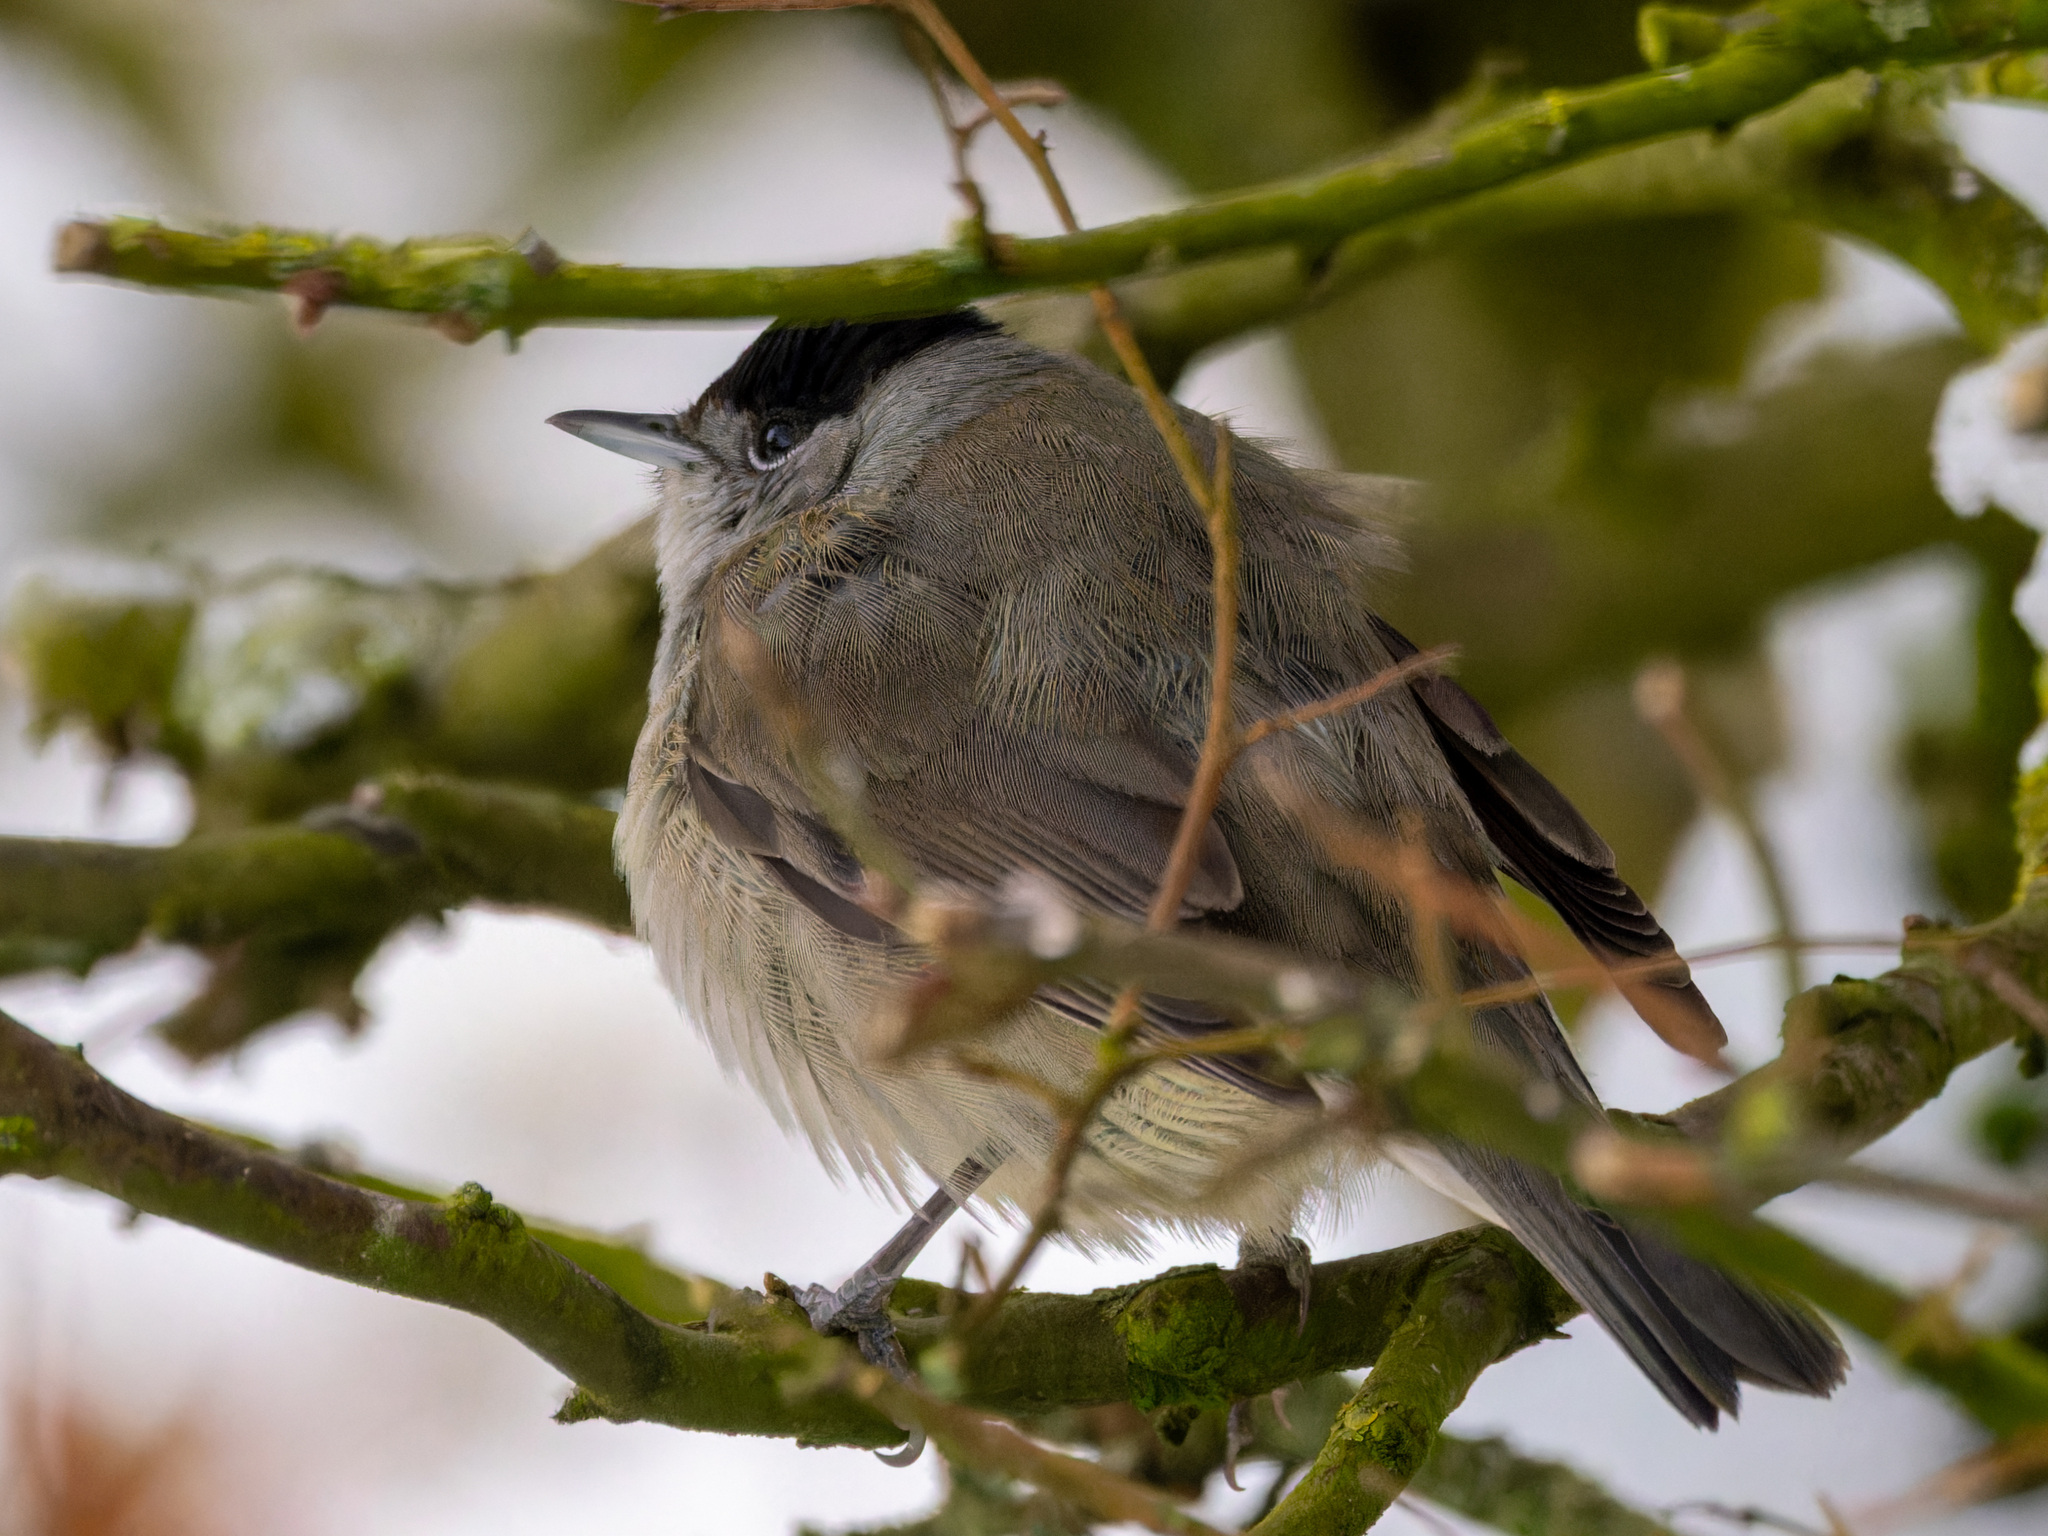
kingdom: Animalia
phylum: Chordata
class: Aves
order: Passeriformes
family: Sylviidae
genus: Sylvia
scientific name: Sylvia atricapilla
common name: Eurasian blackcap
